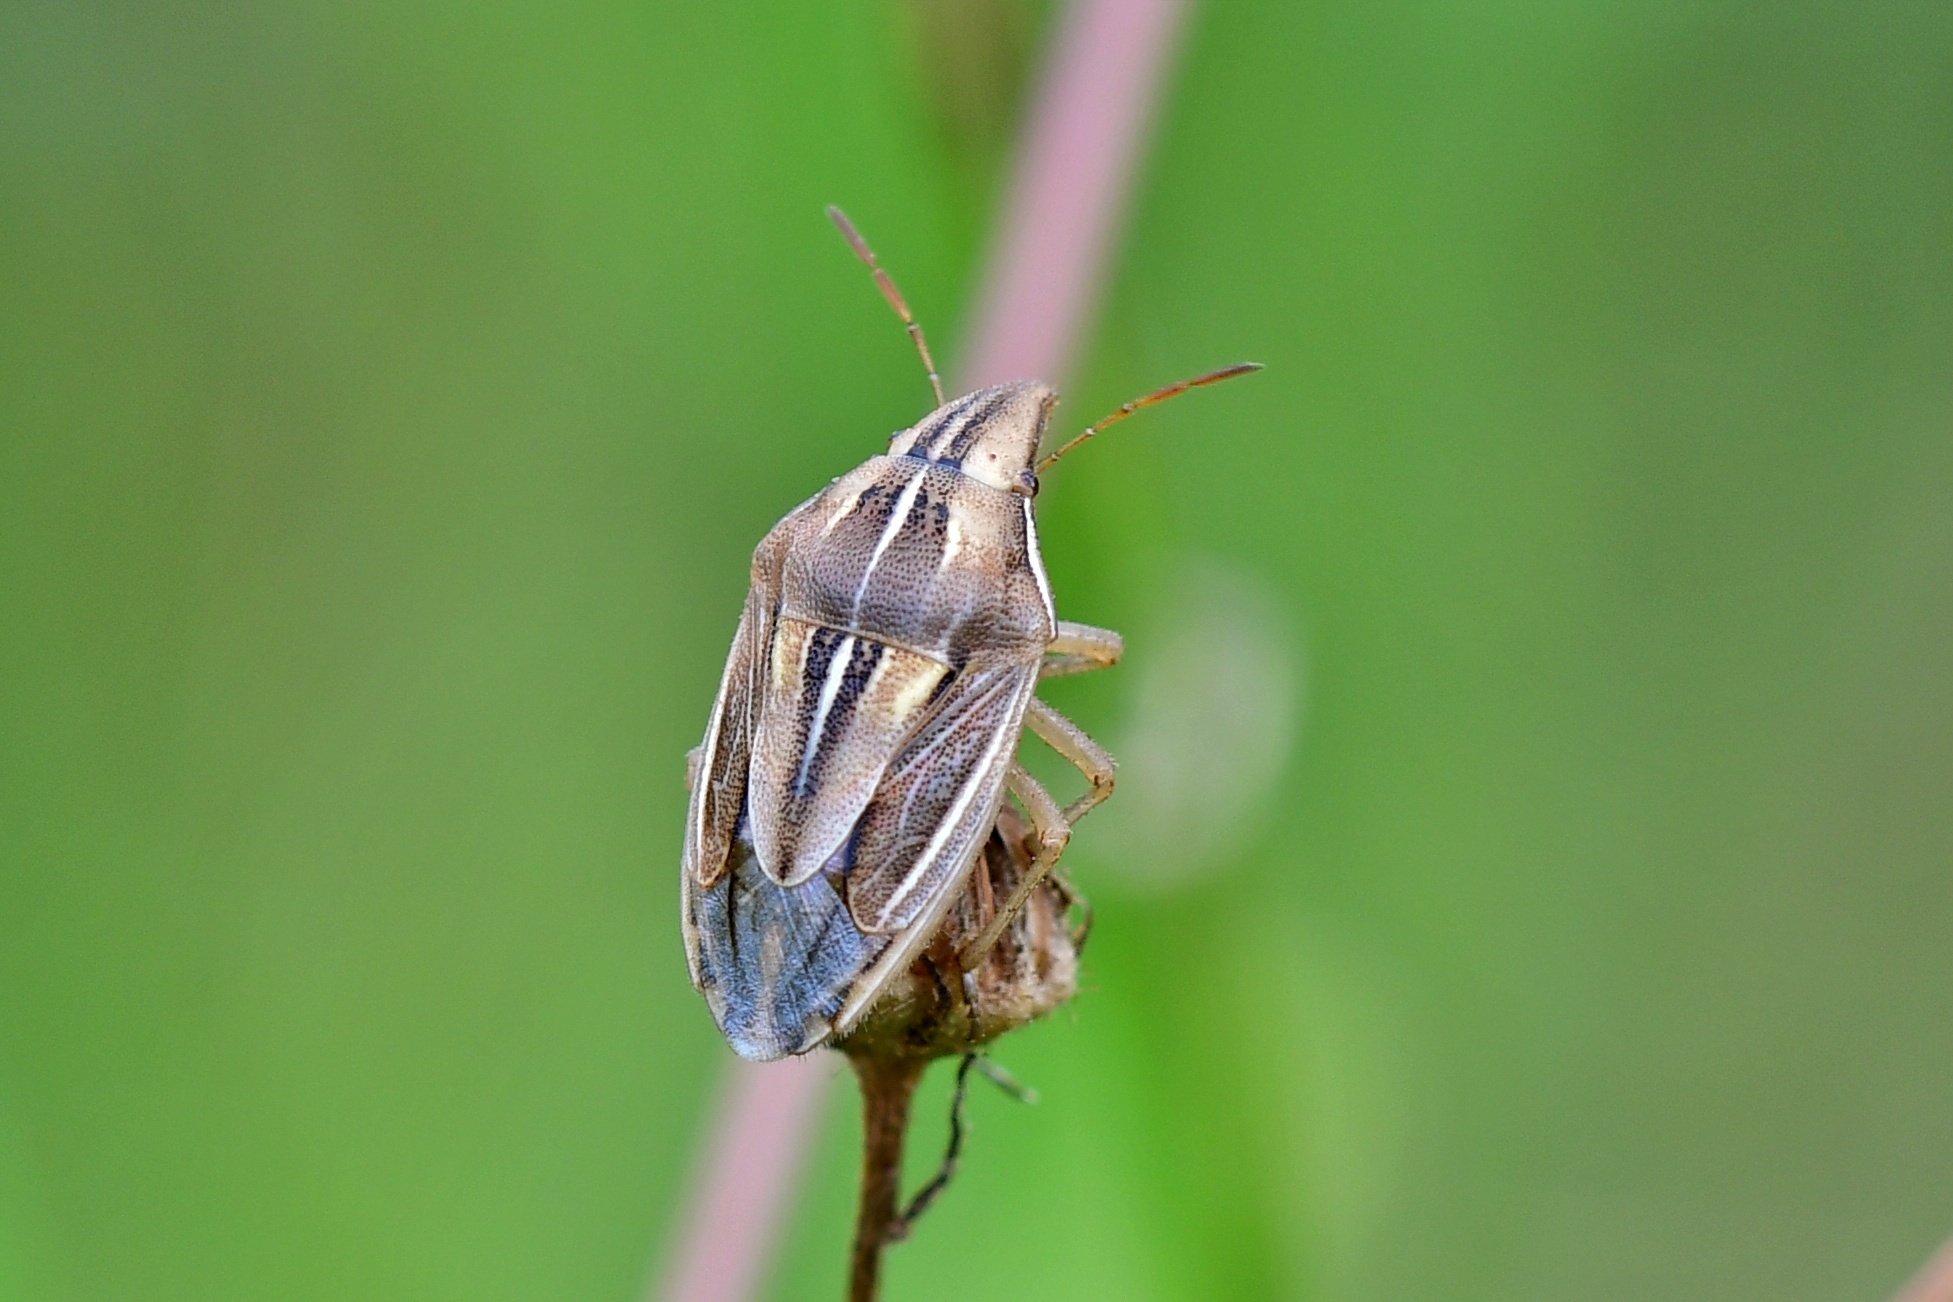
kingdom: Animalia
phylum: Arthropoda
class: Insecta
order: Hemiptera
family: Pentatomidae
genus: Aelia
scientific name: Aelia rostrata
